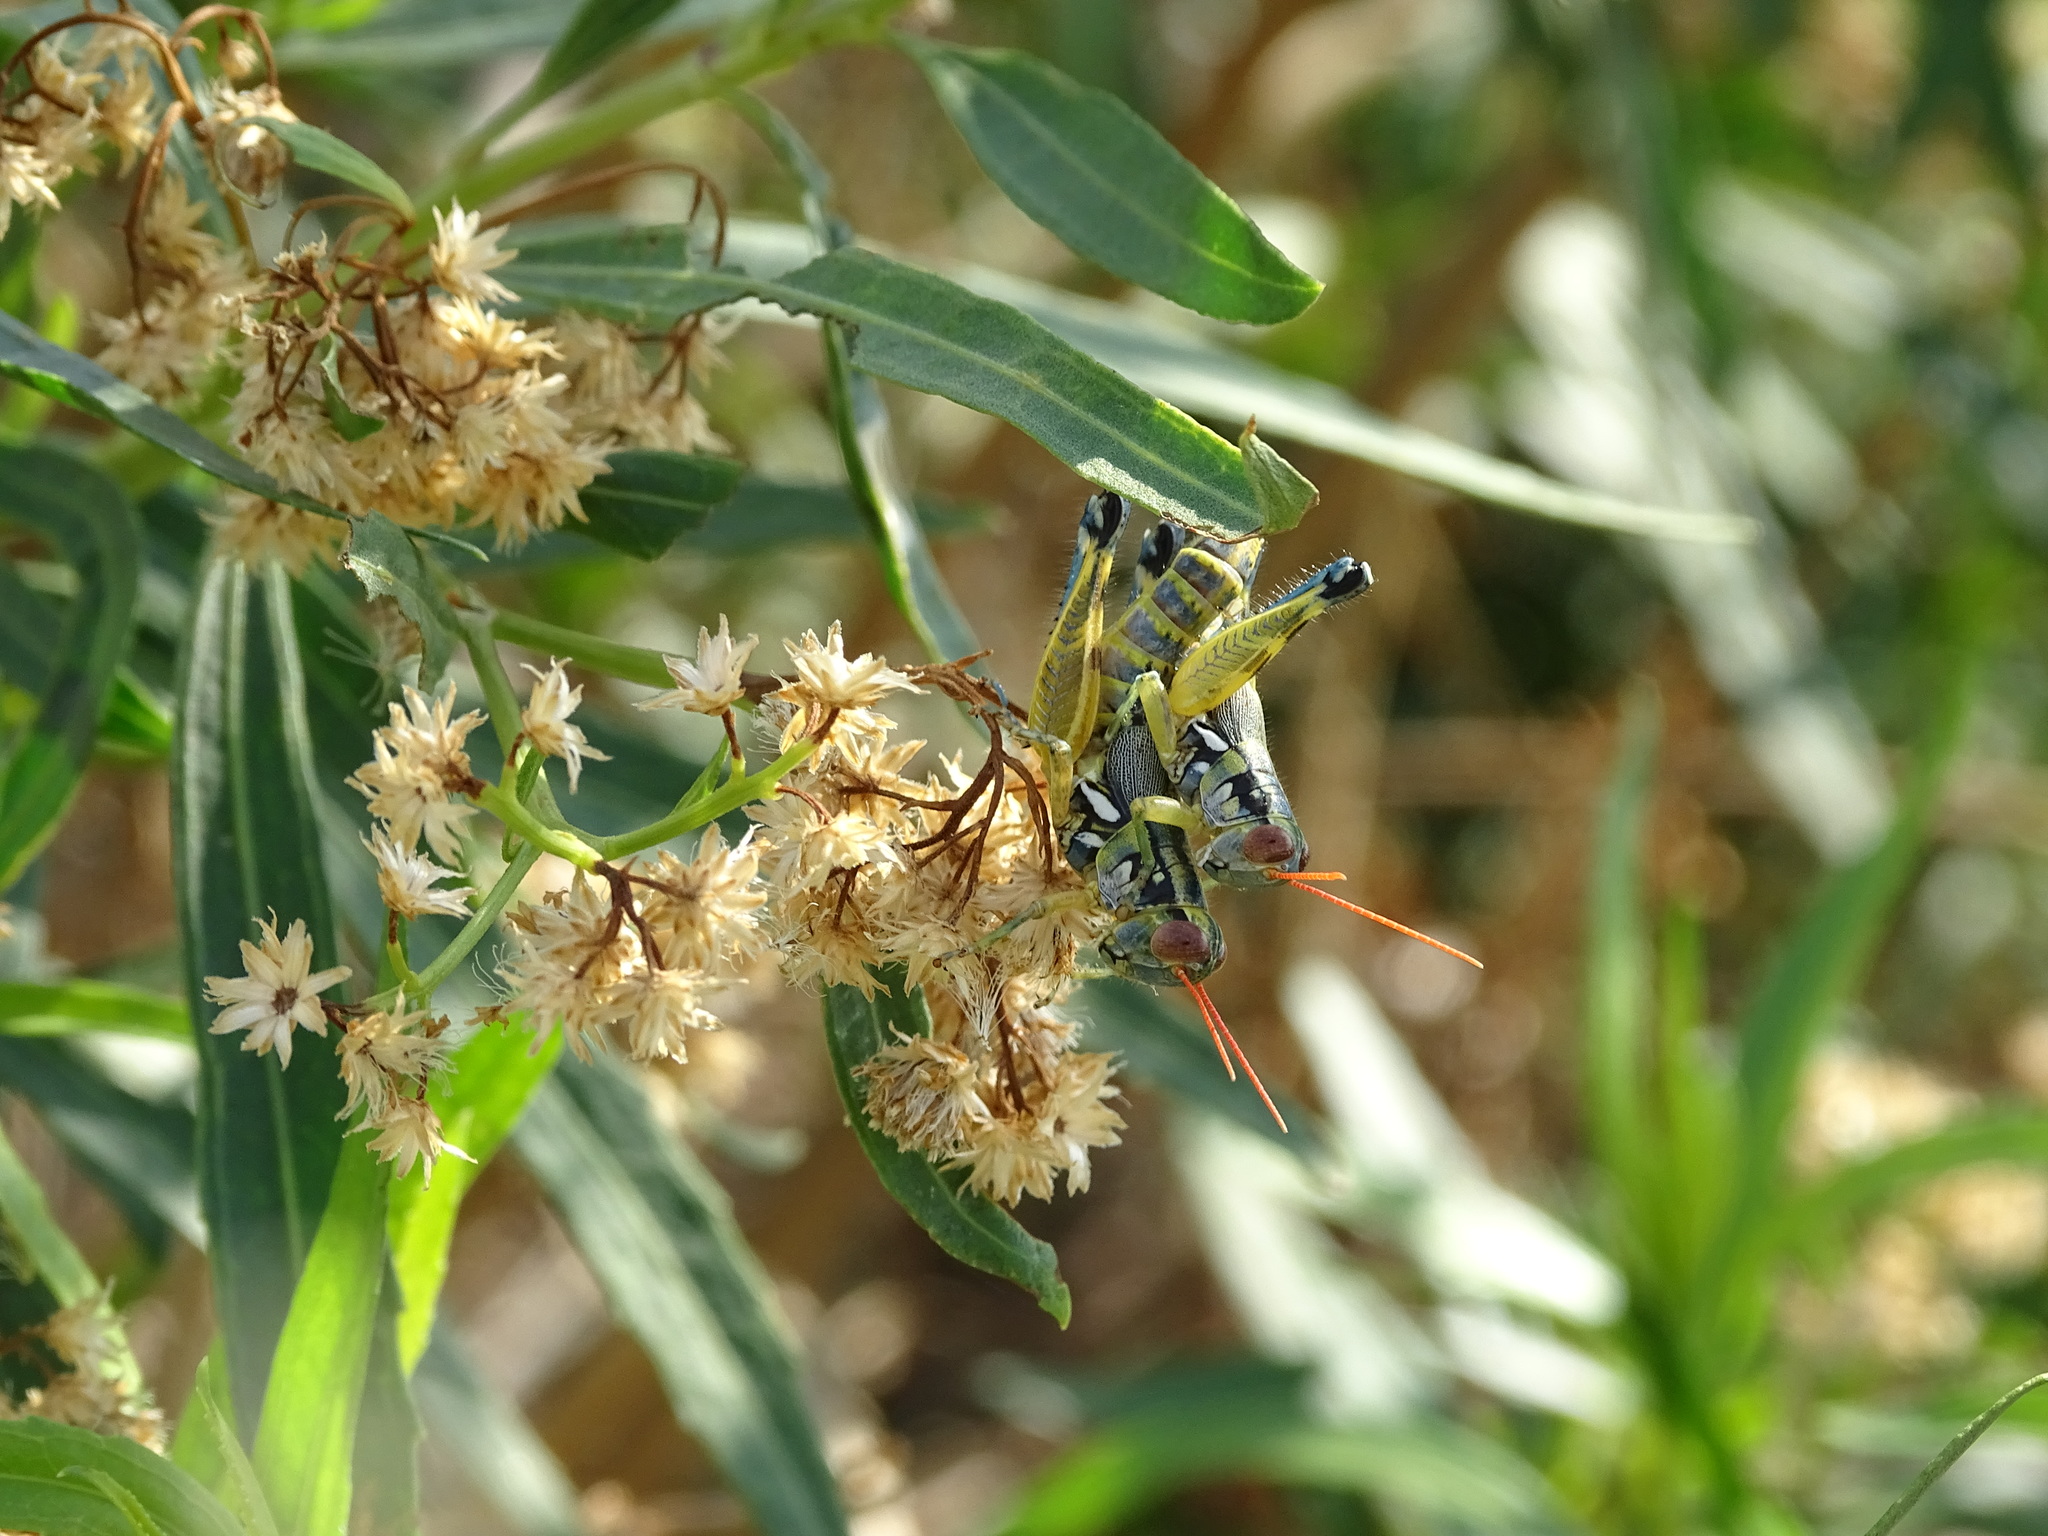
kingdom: Animalia
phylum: Arthropoda
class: Insecta
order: Orthoptera
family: Acrididae
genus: Melanoplus
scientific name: Melanoplus aridus
